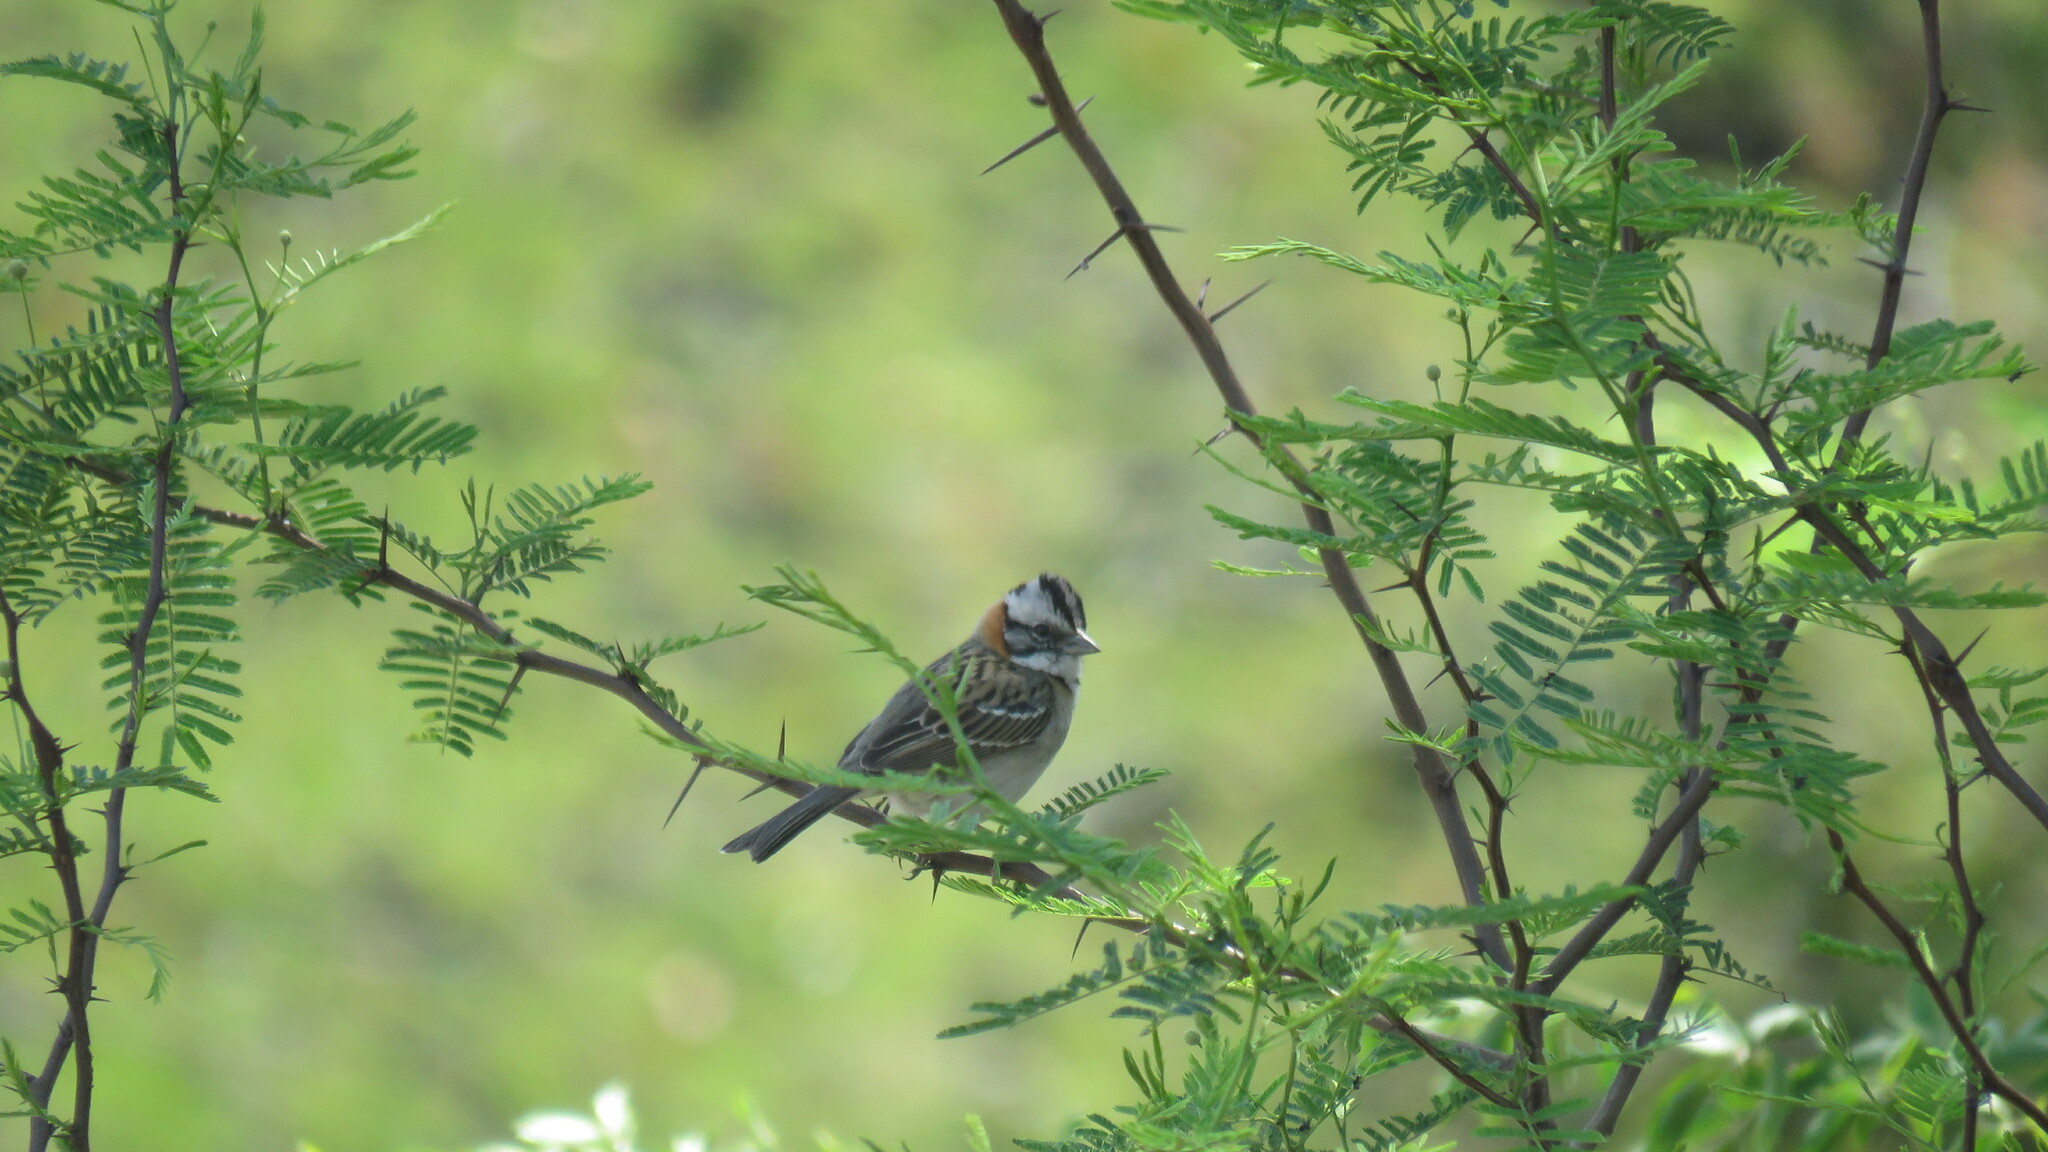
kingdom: Animalia
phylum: Chordata
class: Aves
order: Passeriformes
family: Passerellidae
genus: Zonotrichia
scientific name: Zonotrichia capensis
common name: Rufous-collared sparrow
